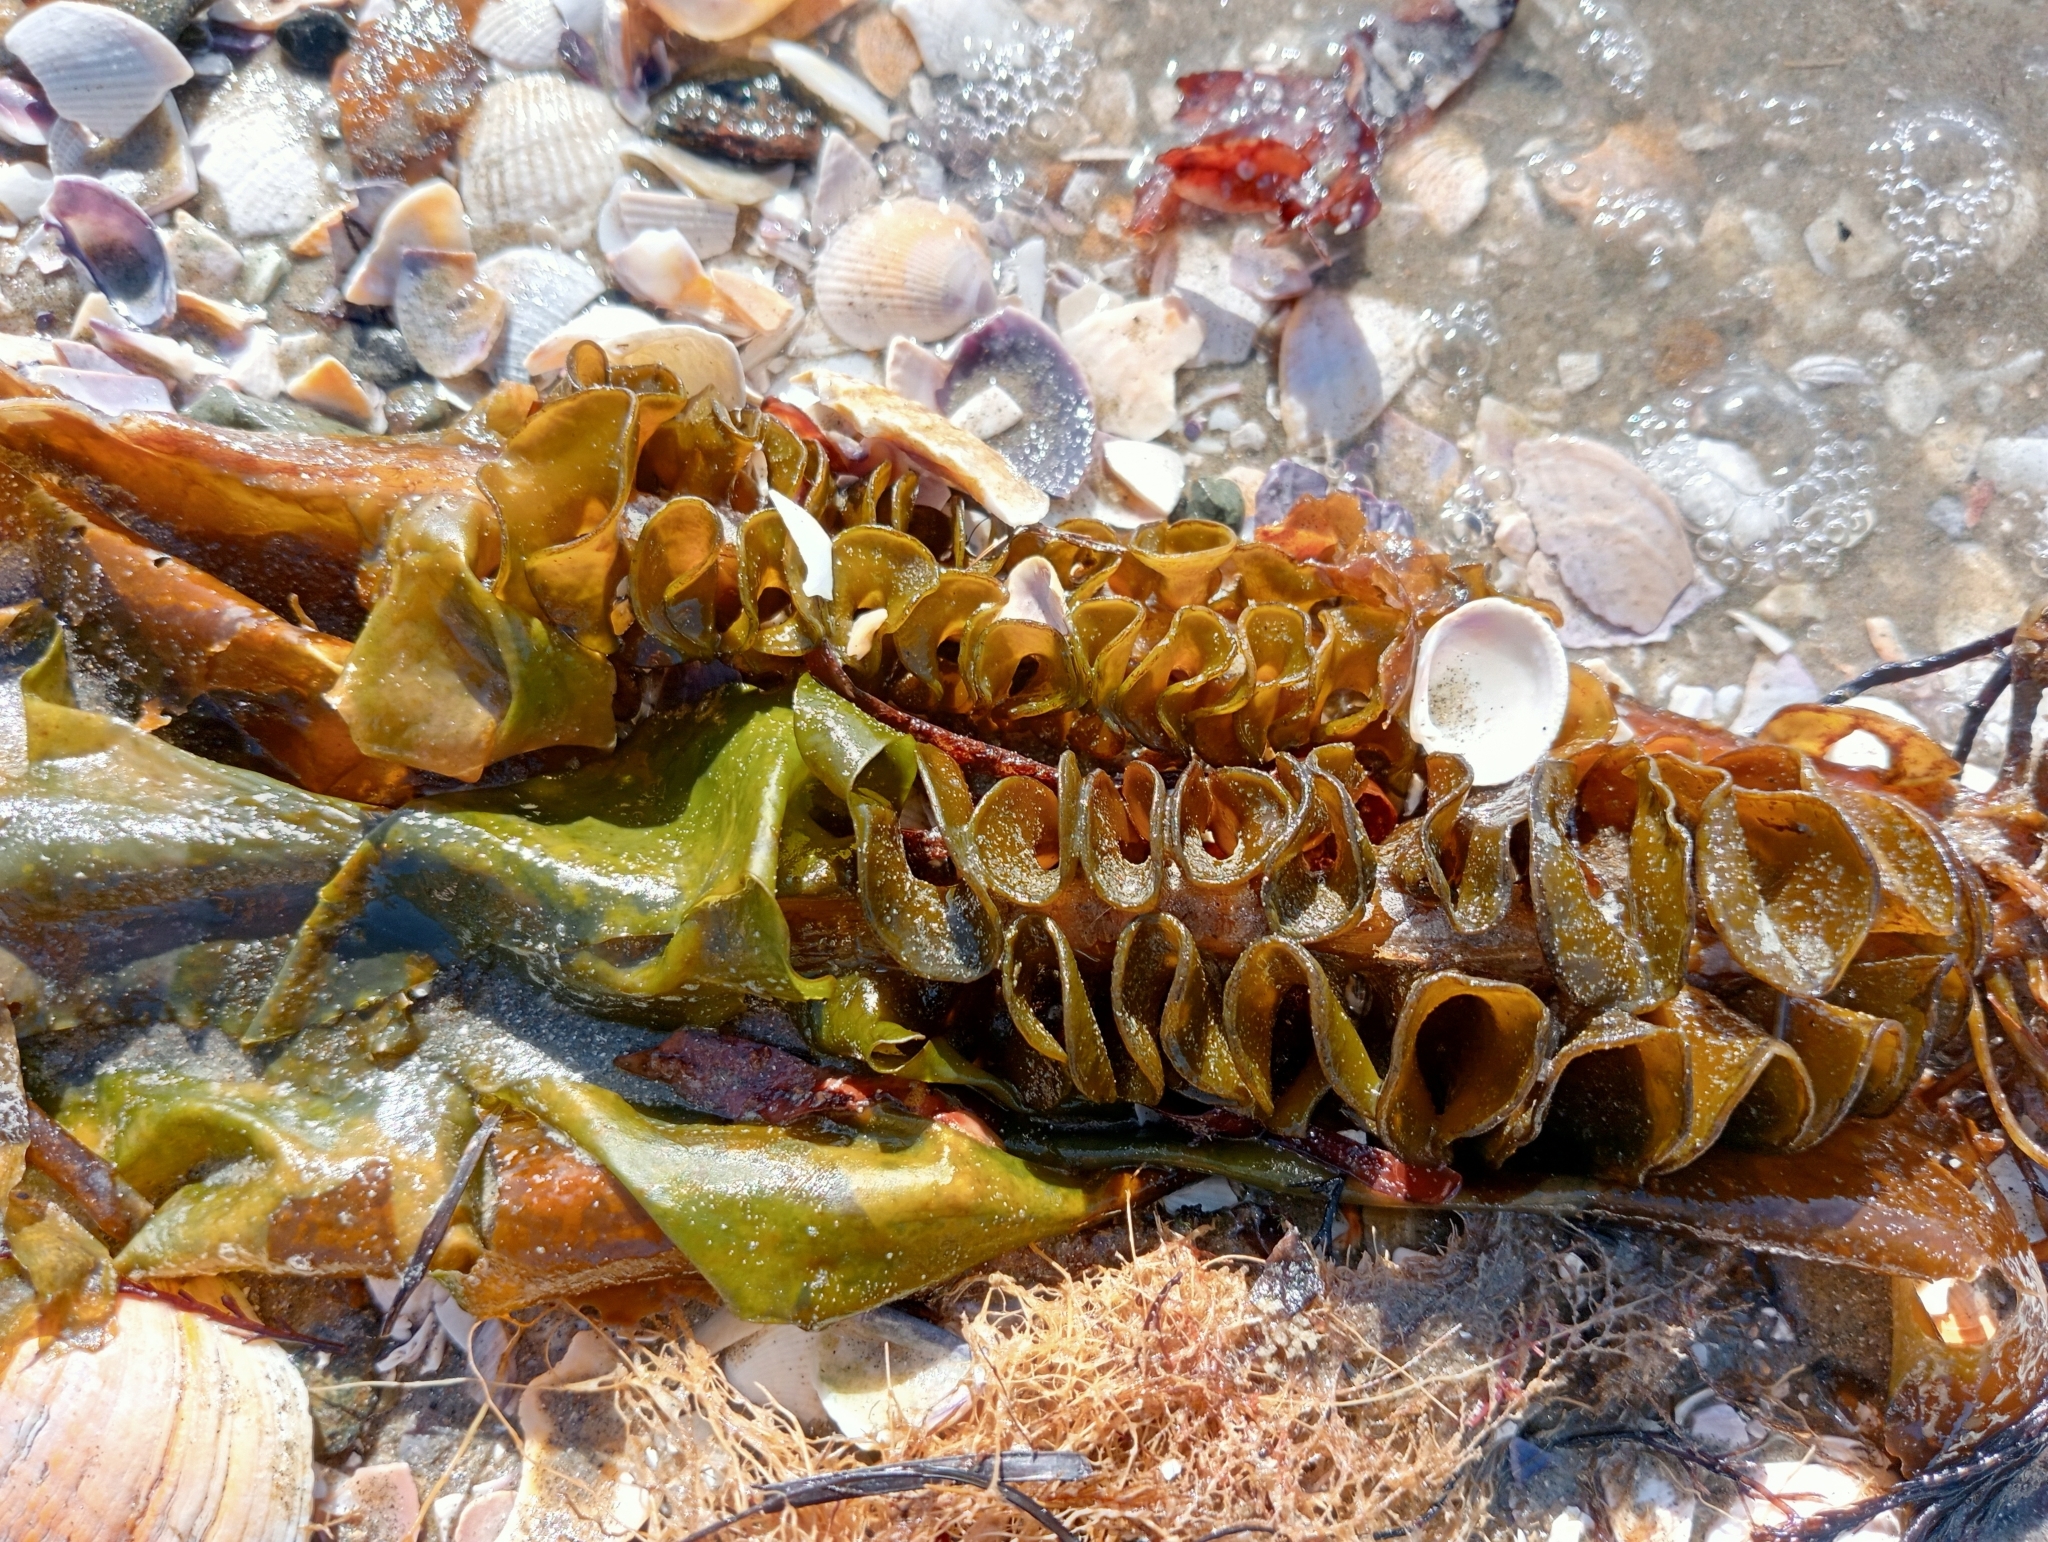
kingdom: Chromista
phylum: Ochrophyta
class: Phaeophyceae
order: Laminariales
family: Alariaceae
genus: Undaria
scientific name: Undaria pinnatifida
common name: Asian kelp
